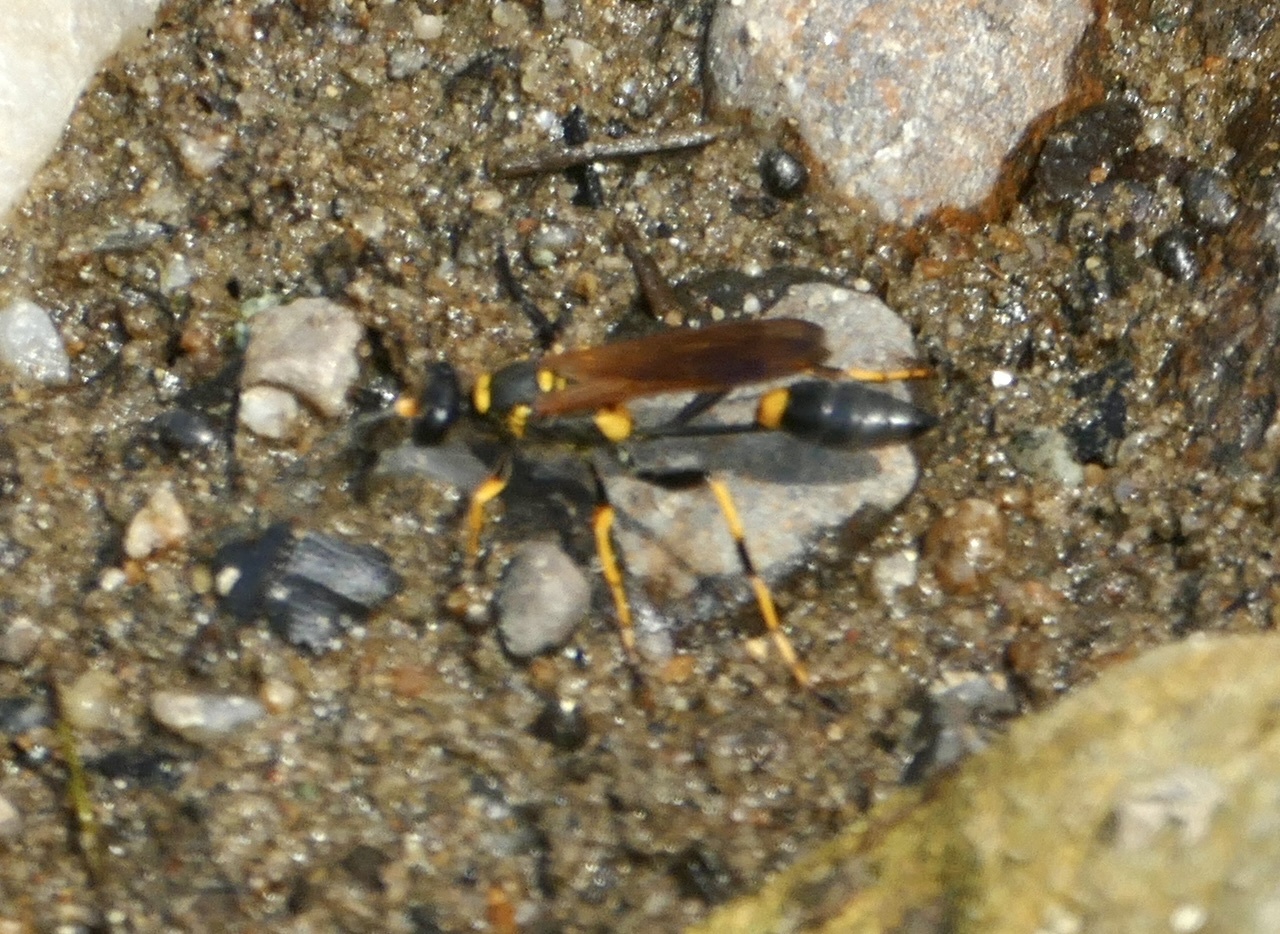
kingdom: Animalia
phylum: Arthropoda
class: Insecta
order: Hymenoptera
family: Sphecidae
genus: Sceliphron
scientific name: Sceliphron caementarium
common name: Mud dauber
